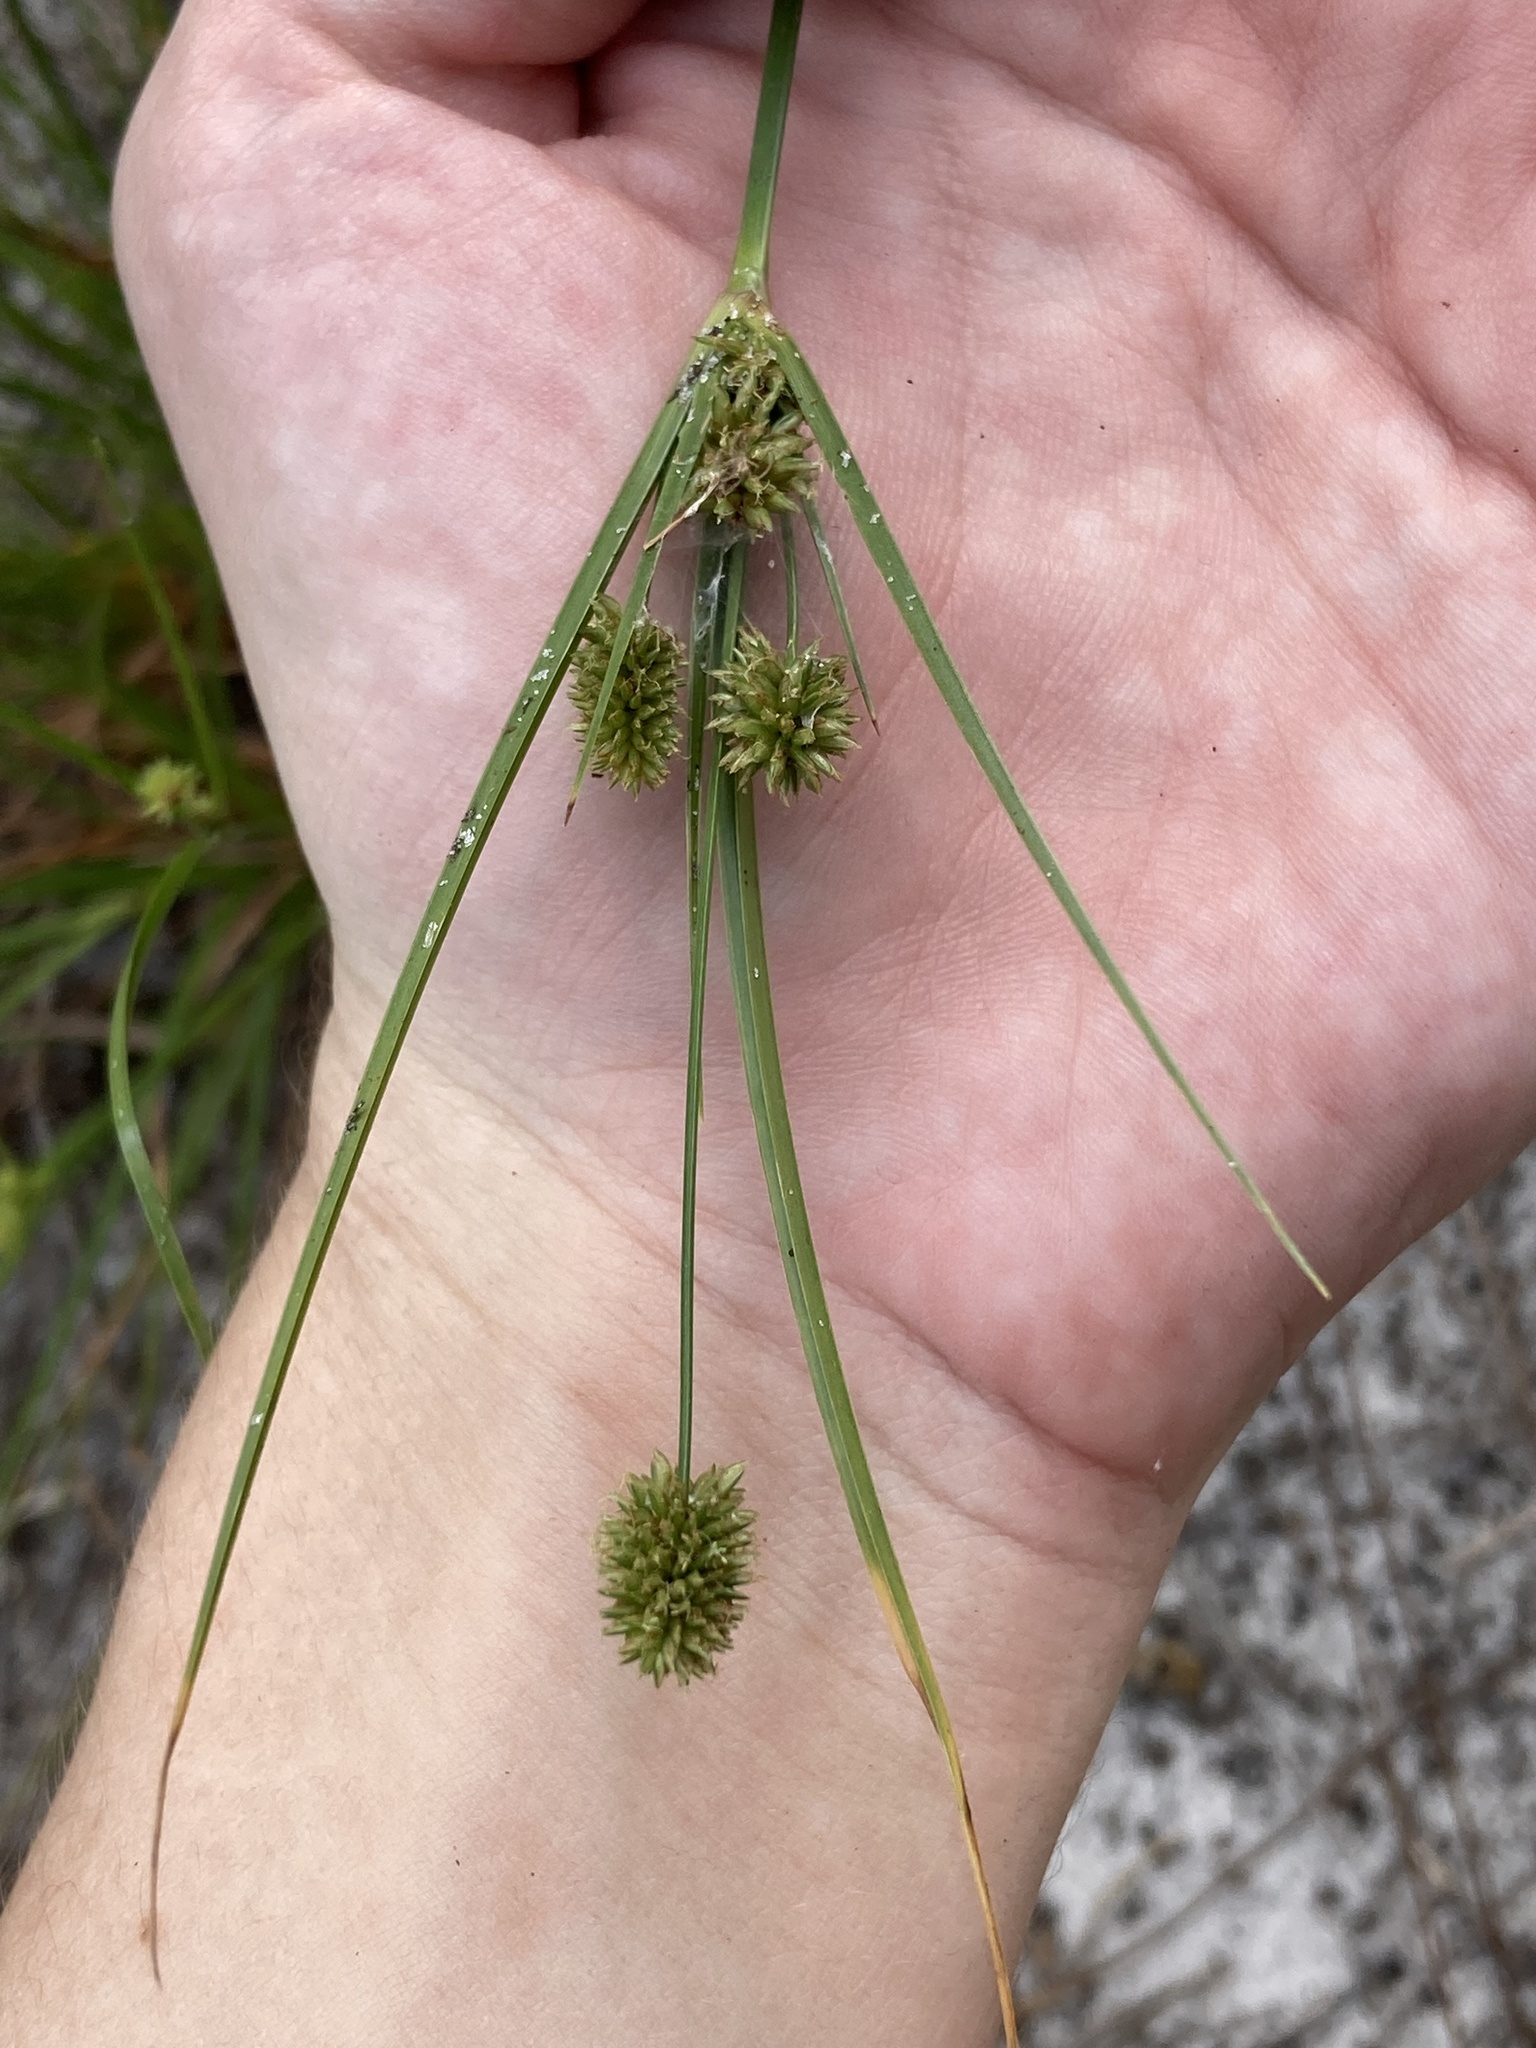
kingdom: Plantae
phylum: Tracheophyta
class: Liliopsida
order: Poales
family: Cyperaceae
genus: Cyperus
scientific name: Cyperus retrorsus
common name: Pinebarren flat sedge
